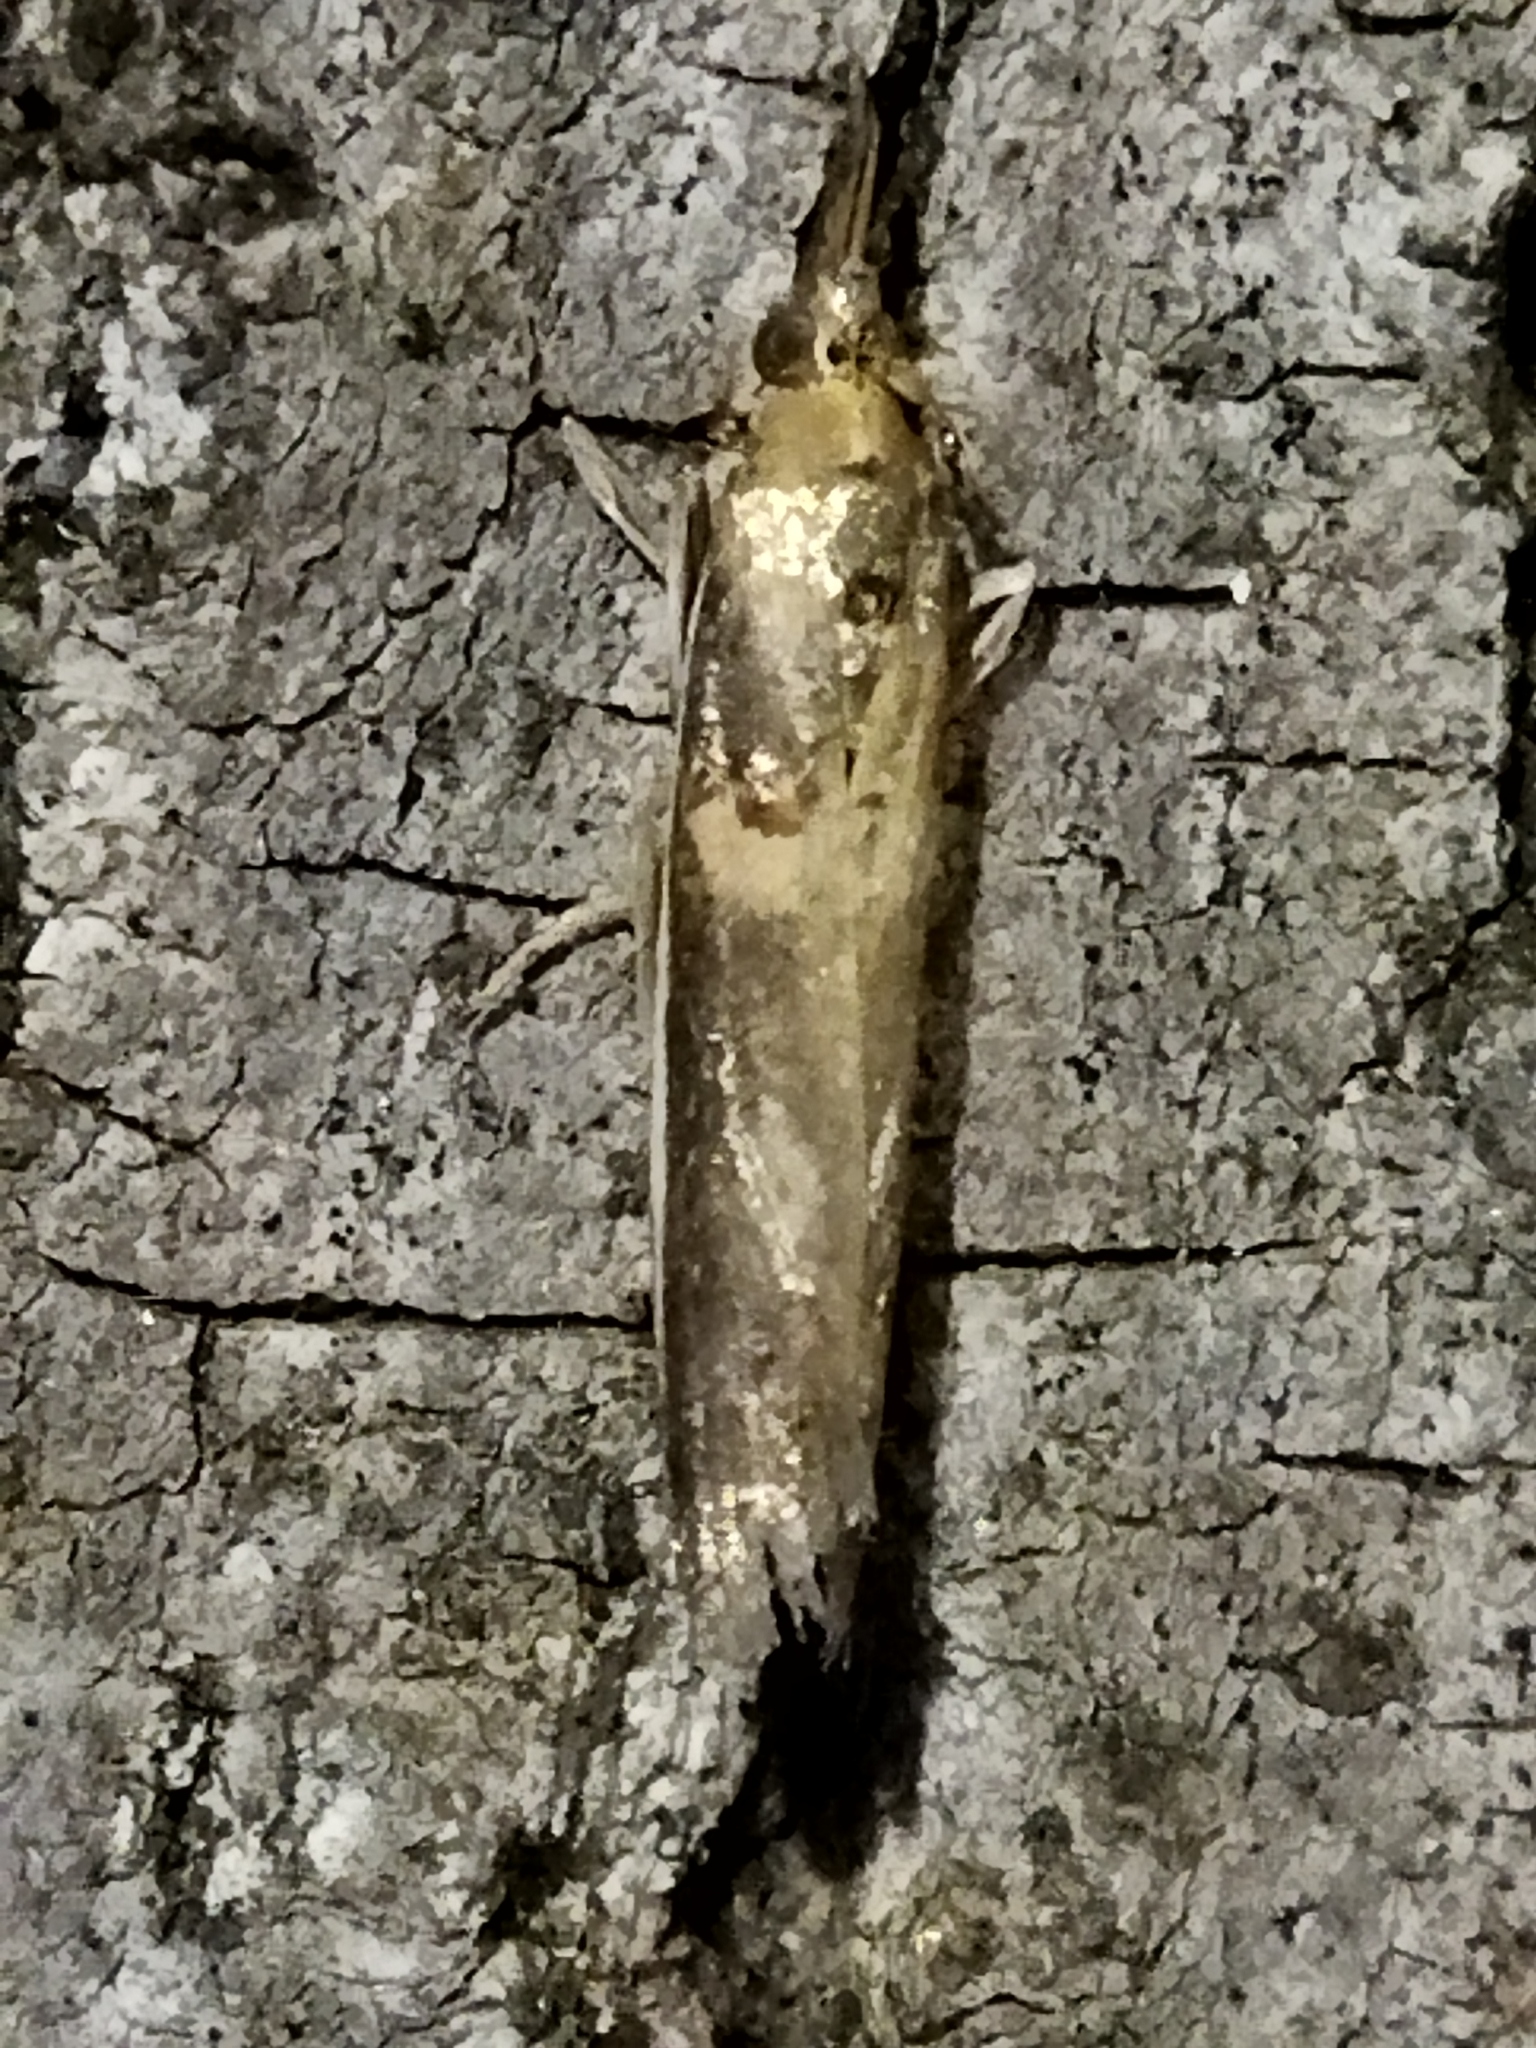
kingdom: Animalia
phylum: Arthropoda
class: Insecta
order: Lepidoptera
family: Pyralidae
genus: Etiella
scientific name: Etiella zinckenella
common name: Gold-banded etiella moth
